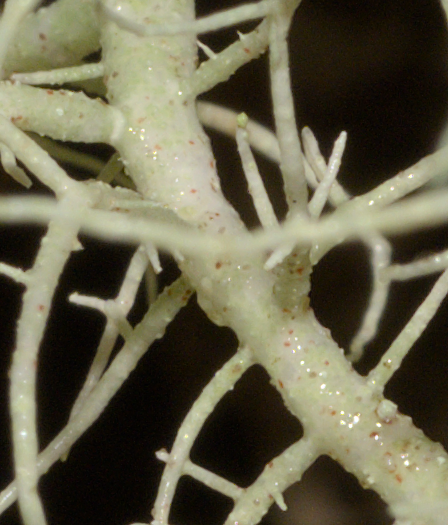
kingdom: Fungi
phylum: Ascomycota
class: Lecanoromycetes
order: Lecanorales
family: Parmeliaceae
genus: Usnea
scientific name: Usnea flavocardia
